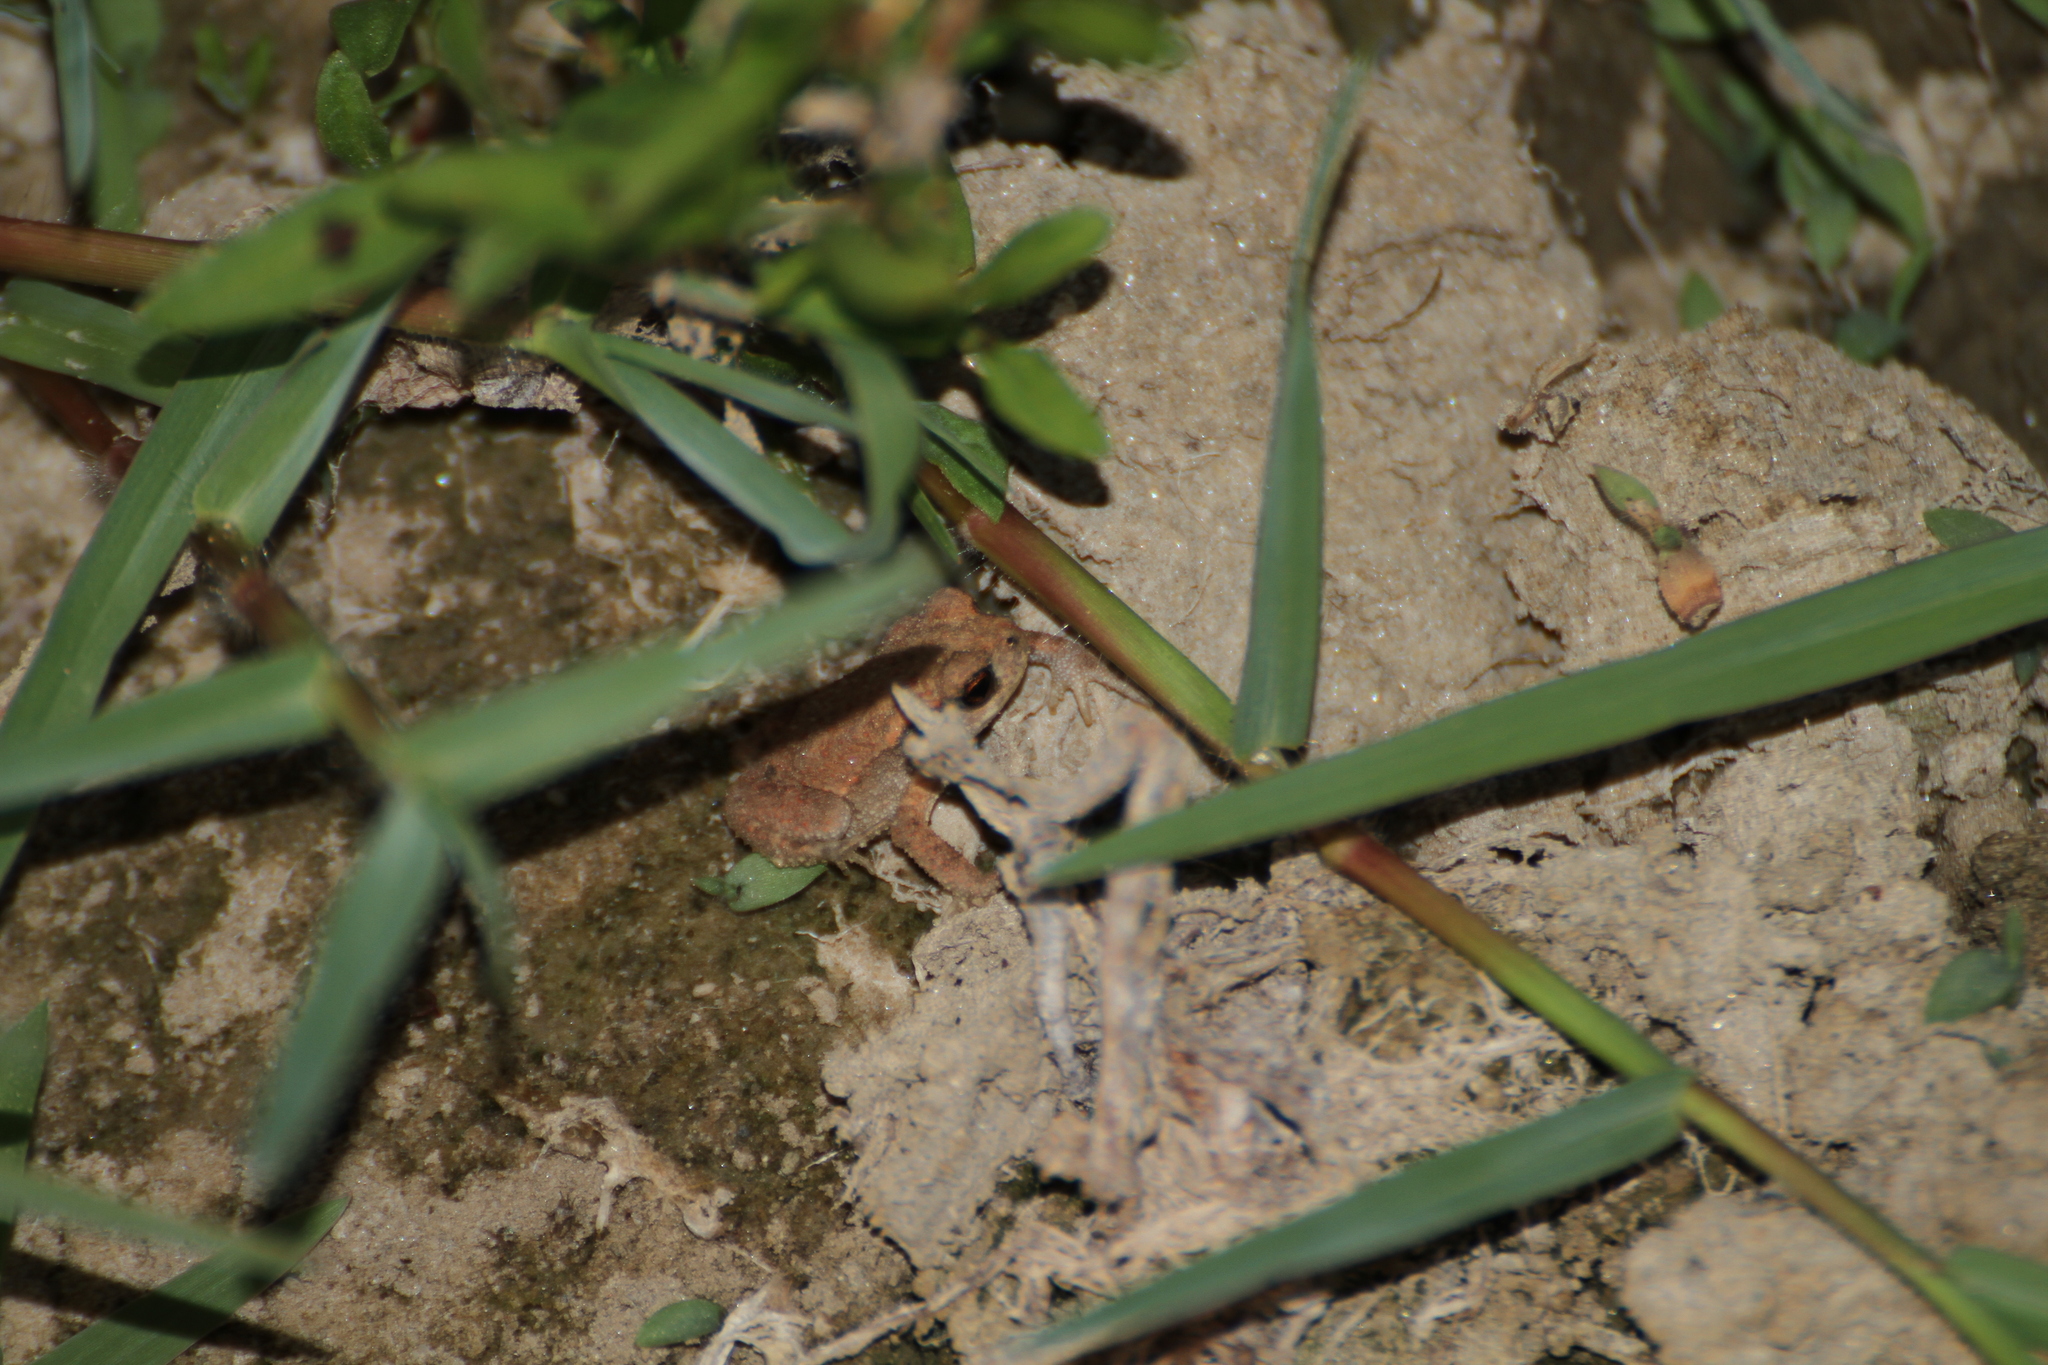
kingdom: Animalia
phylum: Chordata
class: Amphibia
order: Anura
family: Bufonidae
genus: Bufo
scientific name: Bufo spinosus
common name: Western common toad
